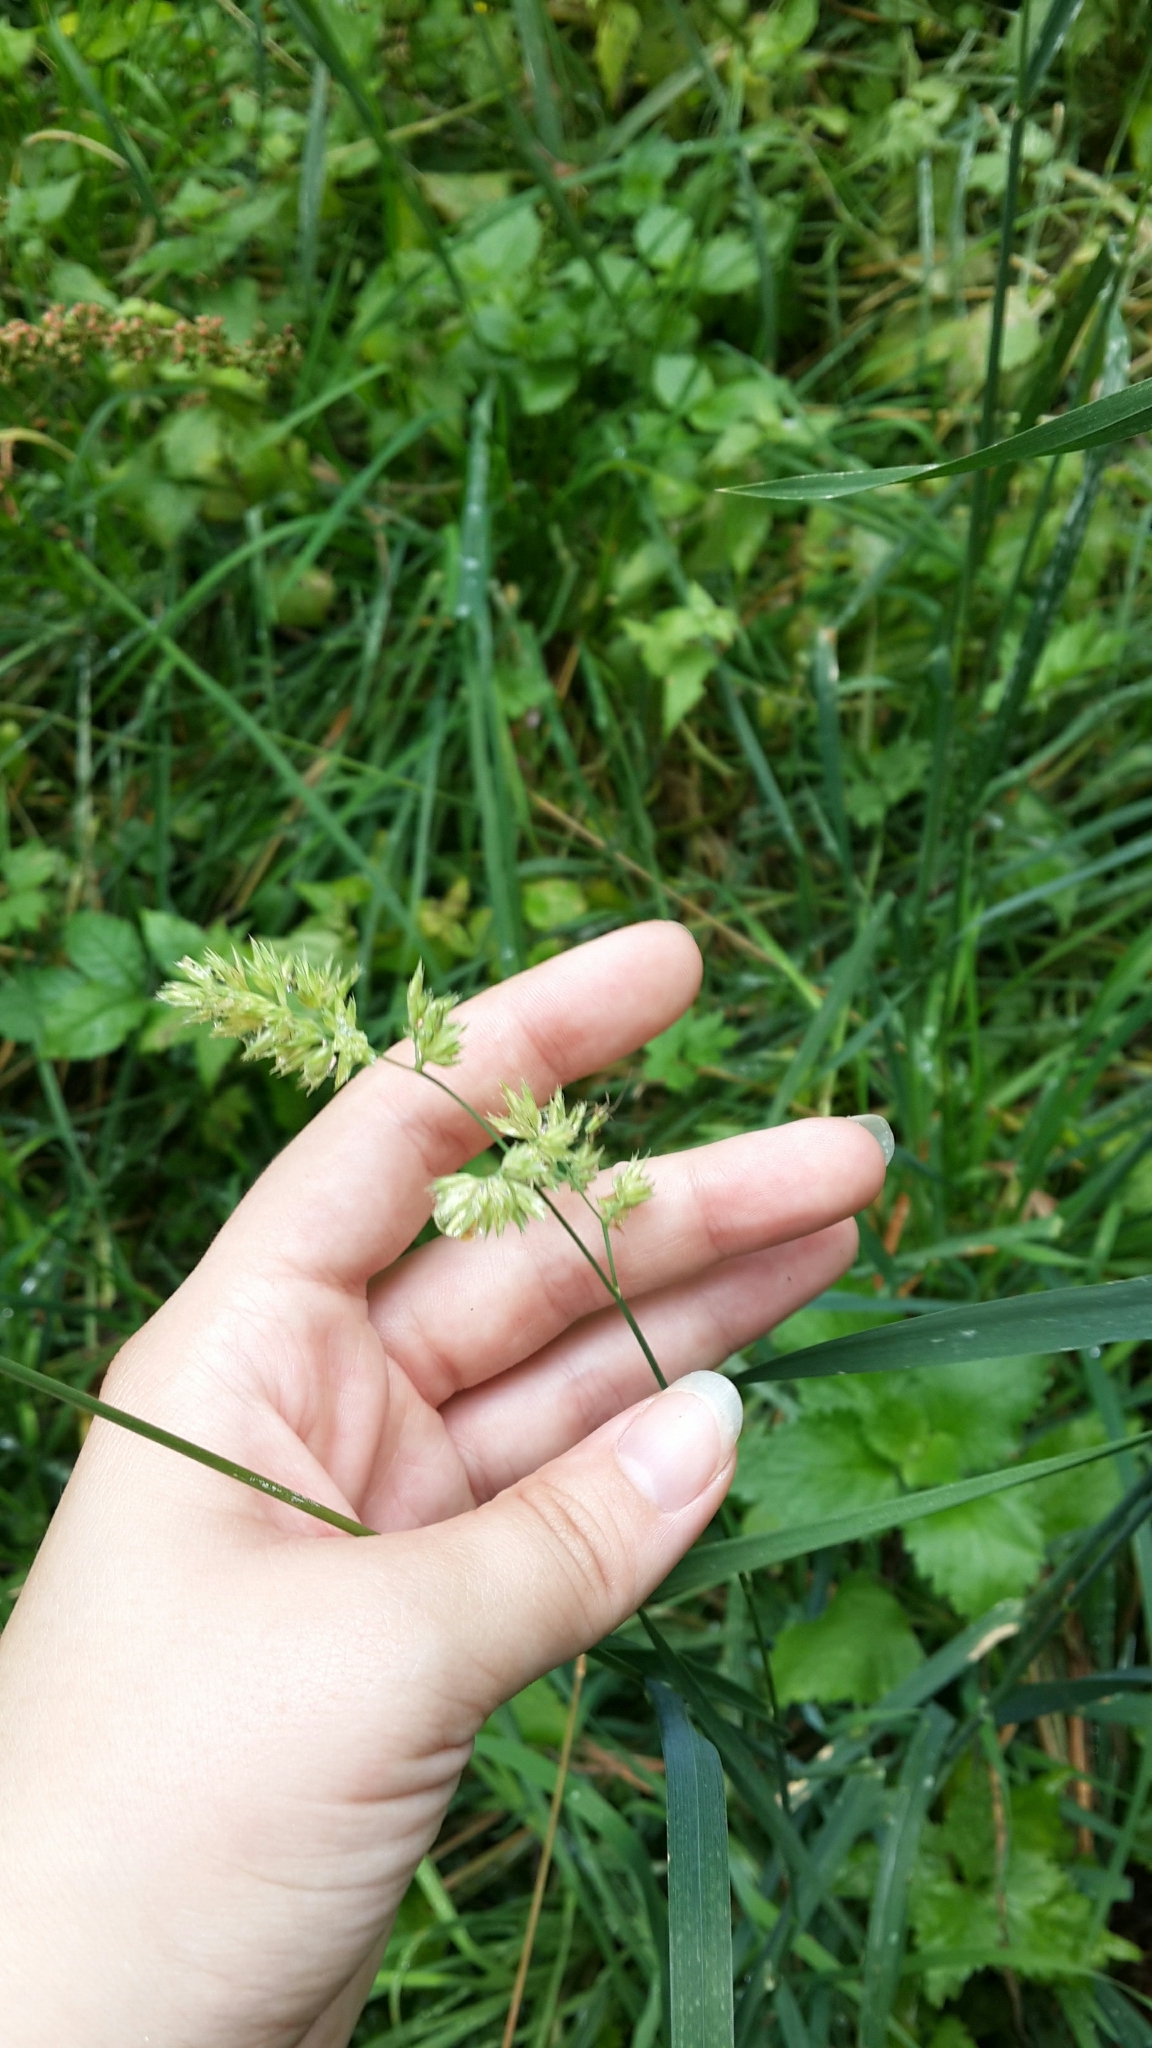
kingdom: Plantae
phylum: Tracheophyta
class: Liliopsida
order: Poales
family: Poaceae
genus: Dactylis
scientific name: Dactylis glomerata
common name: Orchardgrass
